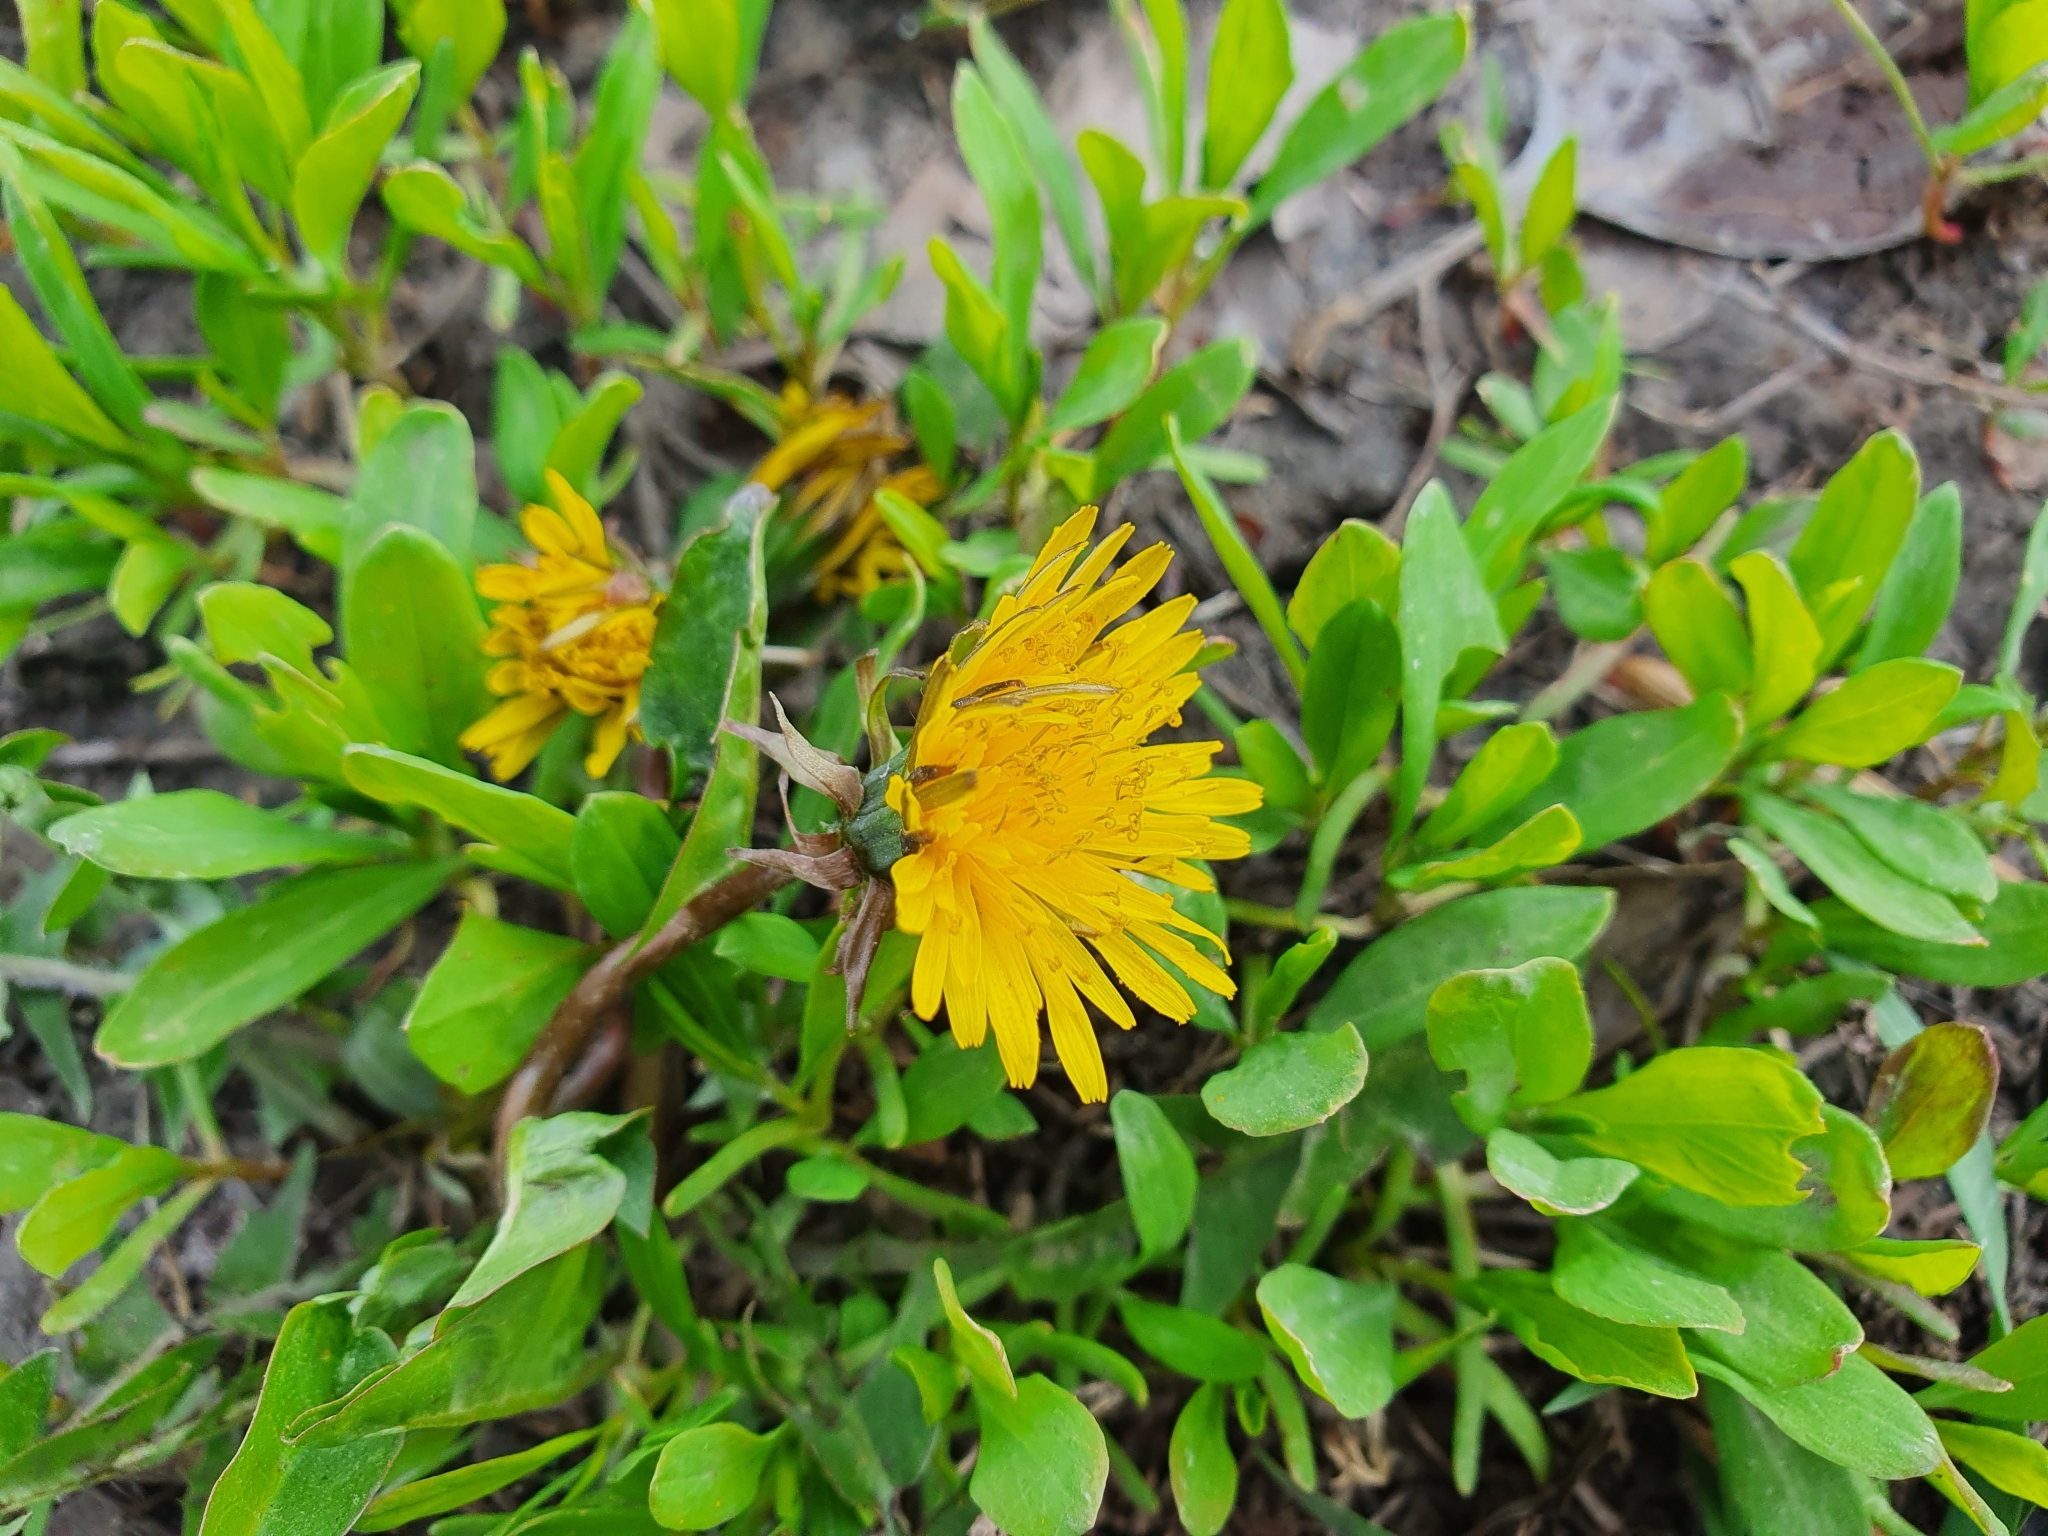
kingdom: Plantae
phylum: Tracheophyta
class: Magnoliopsida
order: Asterales
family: Asteraceae
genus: Taraxacum
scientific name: Taraxacum officinale
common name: Common dandelion
